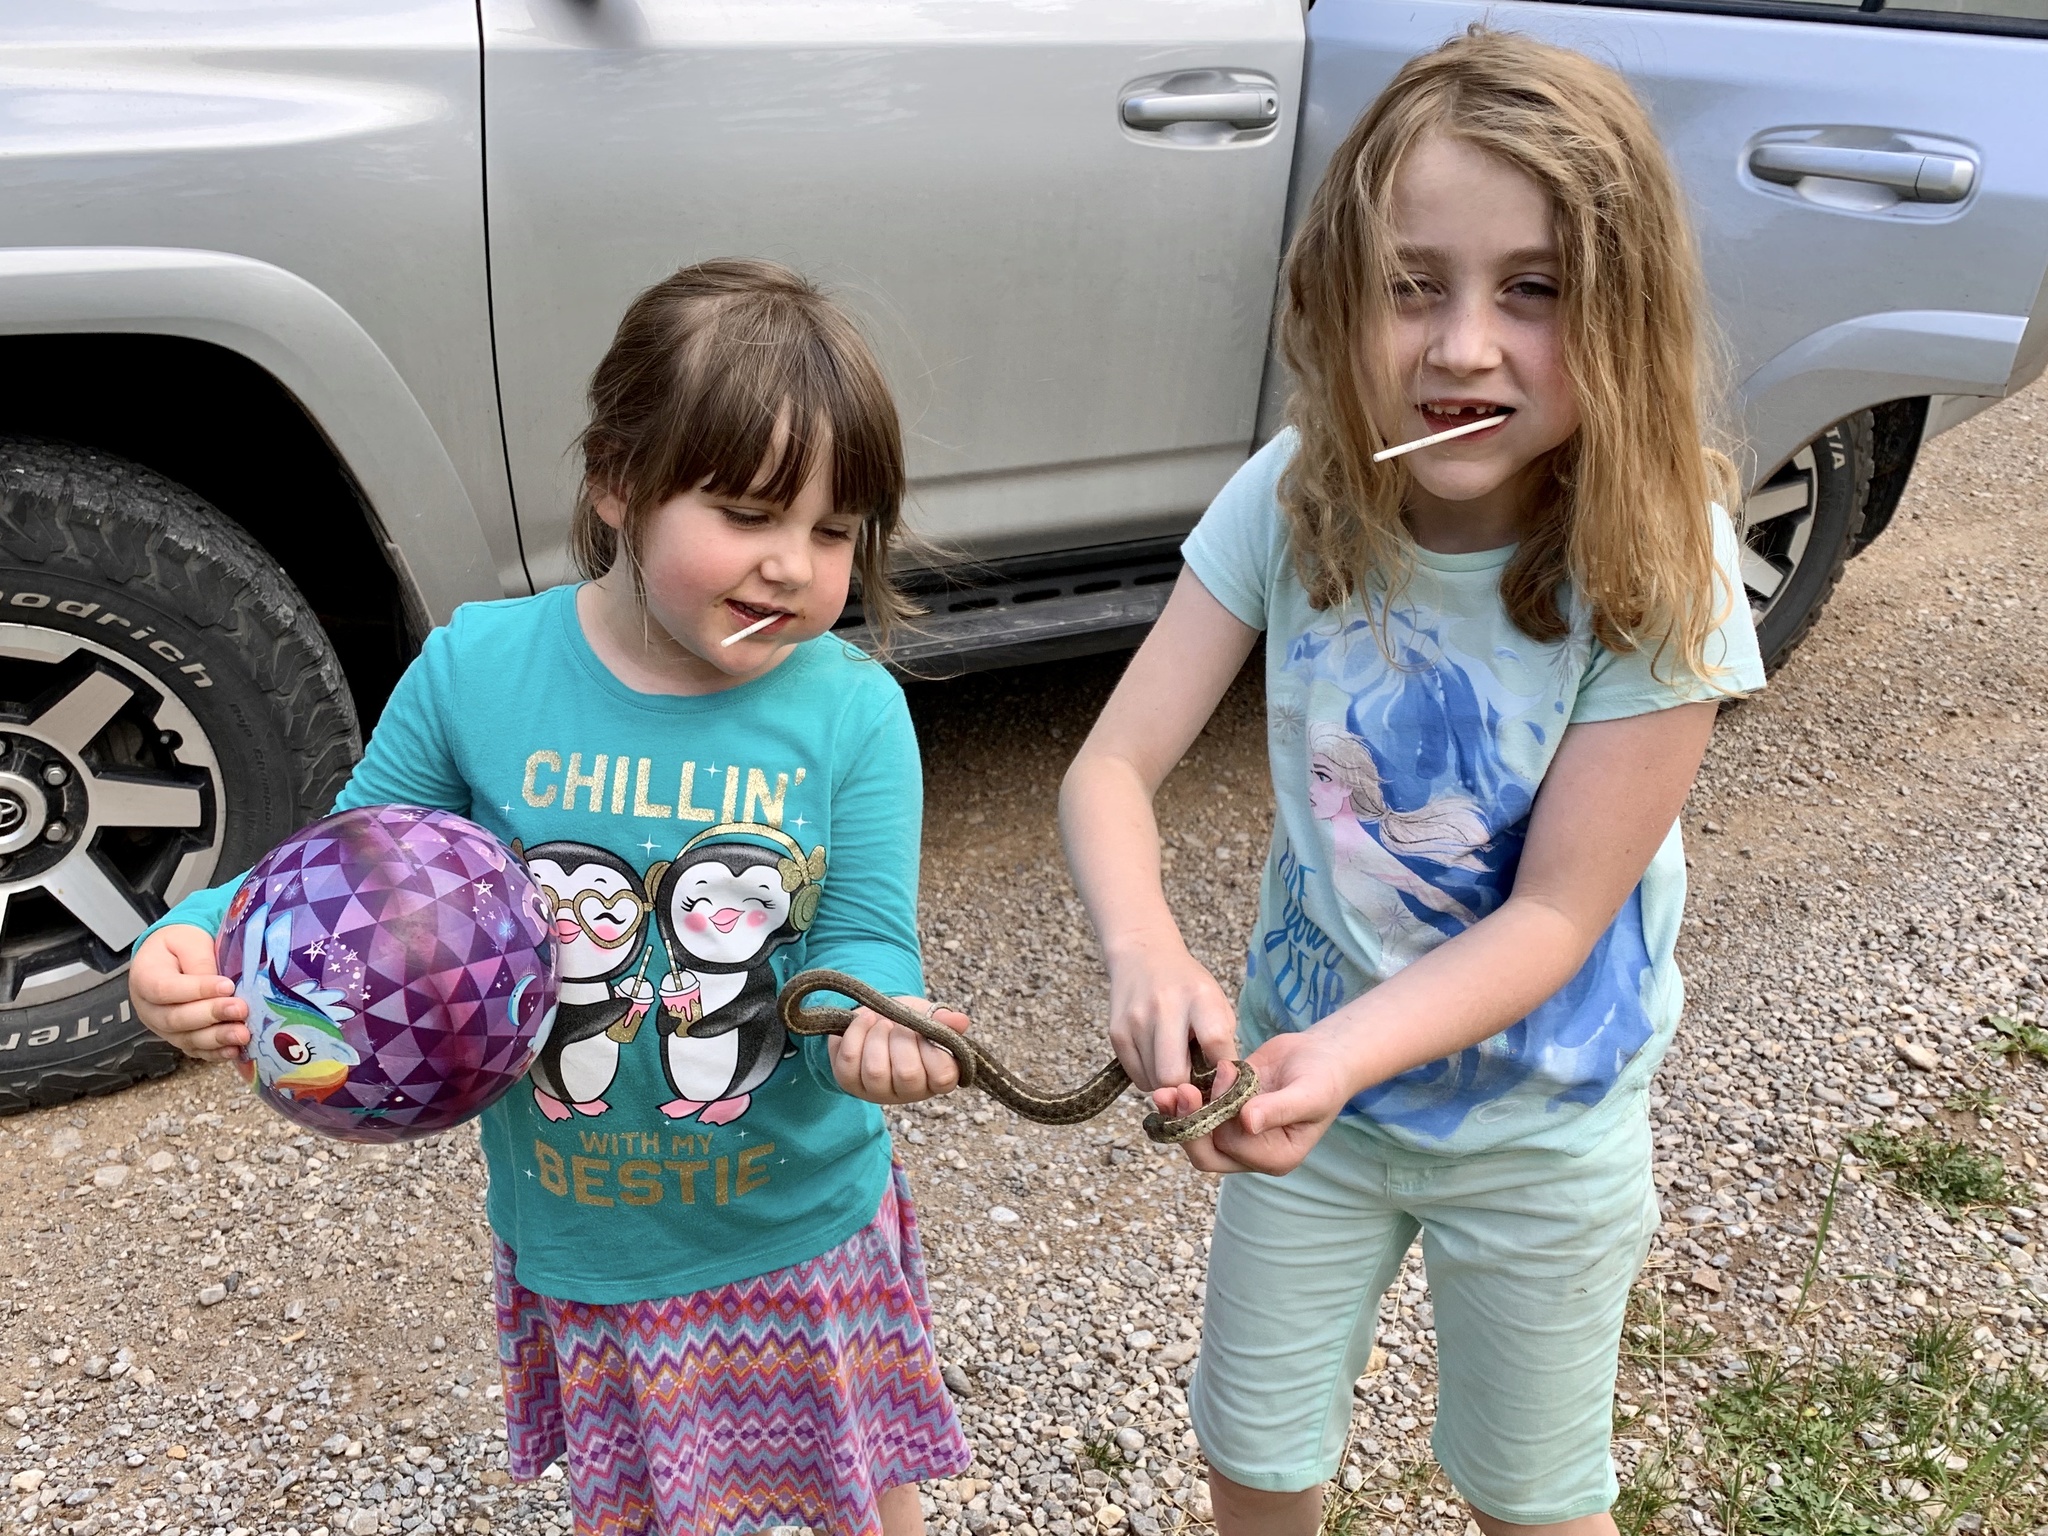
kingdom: Animalia
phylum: Chordata
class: Squamata
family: Colubridae
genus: Thamnophis
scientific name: Thamnophis elegans
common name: Western terrestrial garter snake
